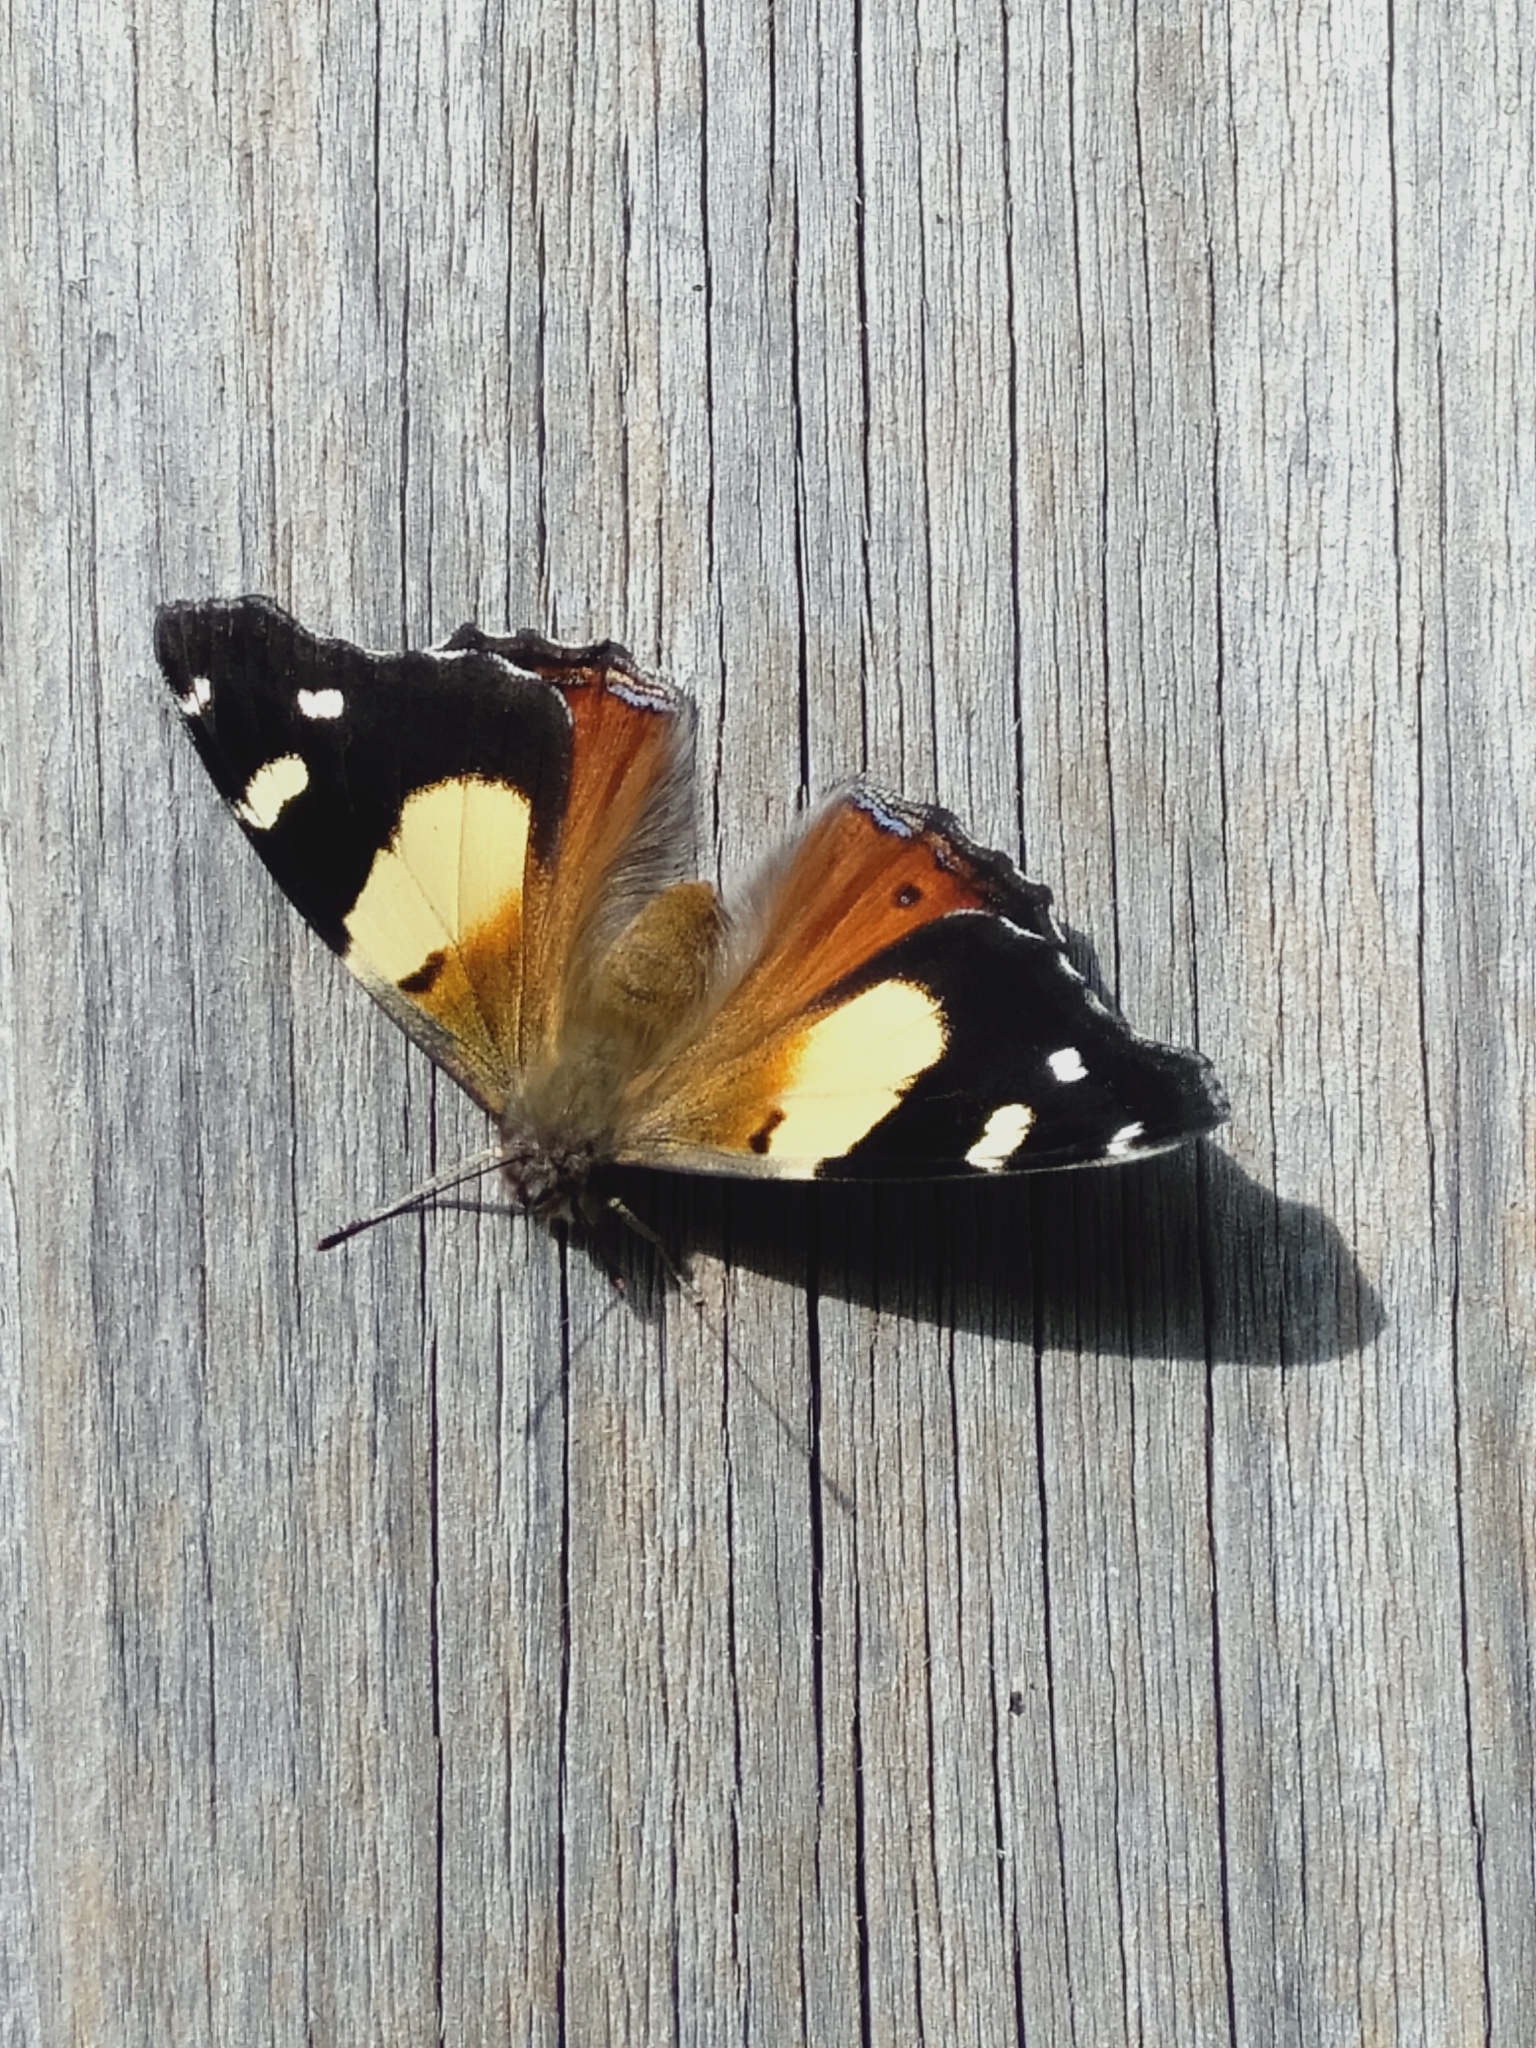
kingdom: Animalia
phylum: Arthropoda
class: Insecta
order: Lepidoptera
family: Nymphalidae
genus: Vanessa
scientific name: Vanessa itea
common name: Yellow admiral
